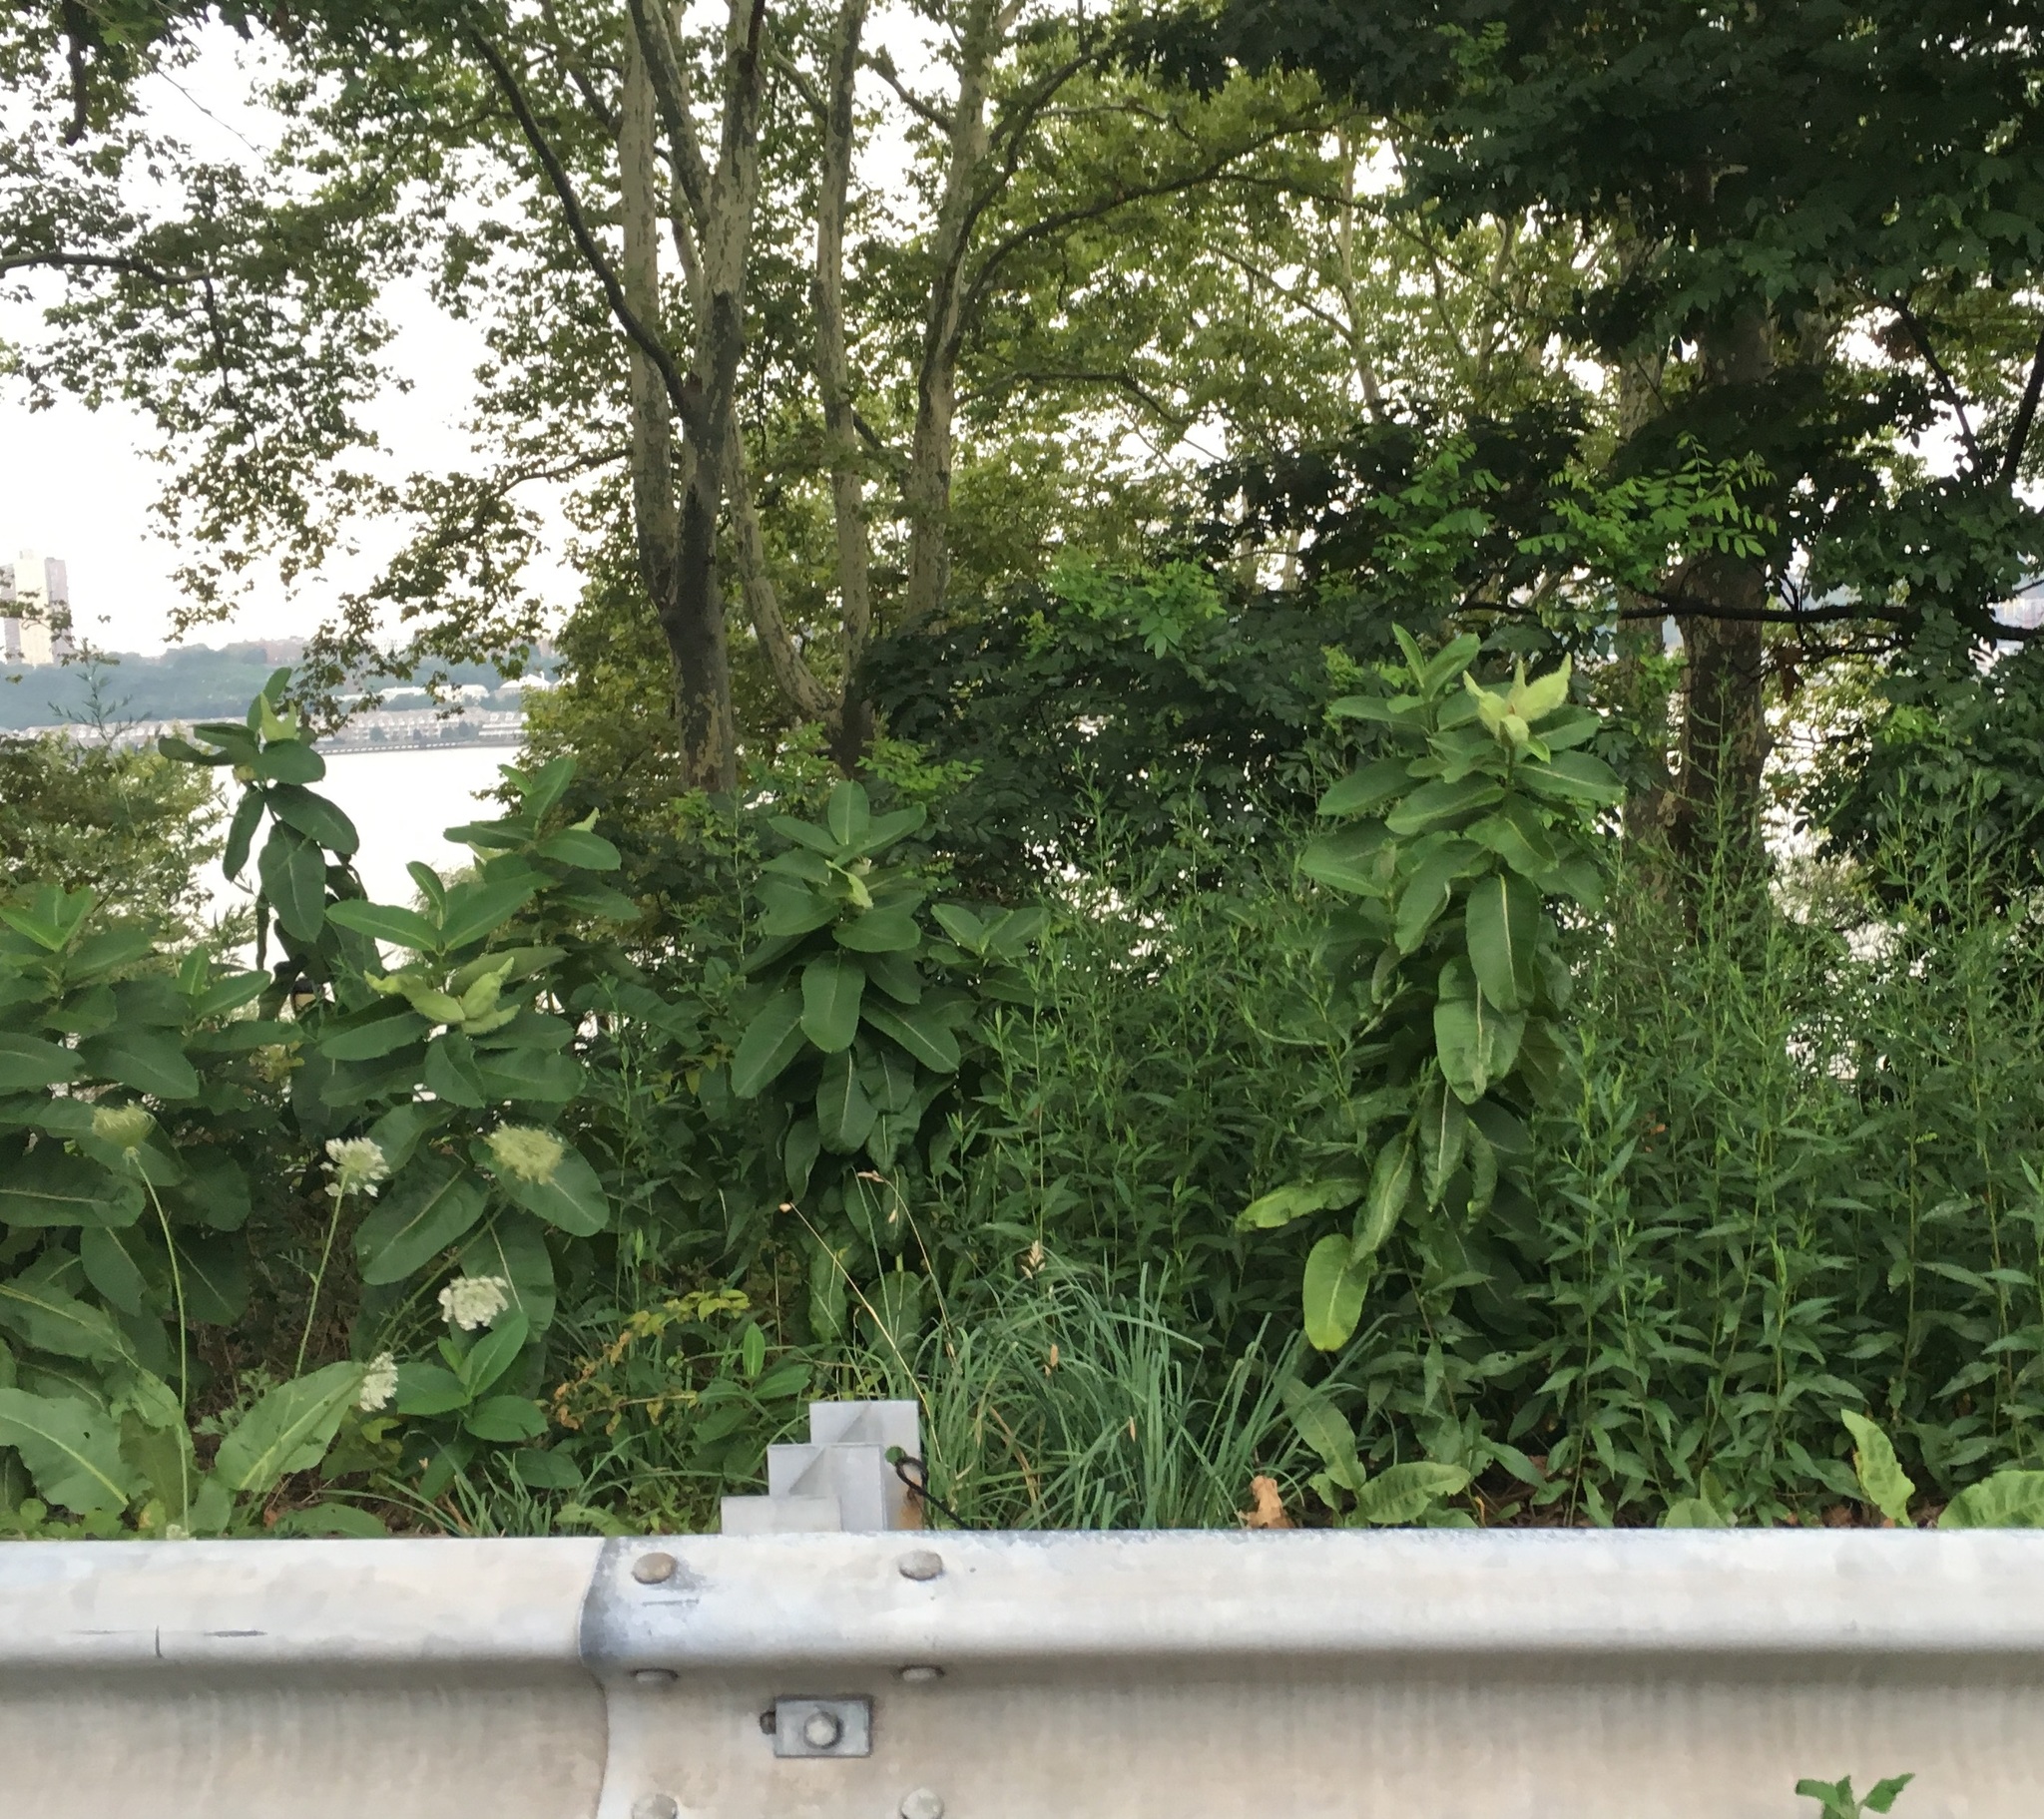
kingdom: Plantae
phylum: Tracheophyta
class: Magnoliopsida
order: Gentianales
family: Apocynaceae
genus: Asclepias
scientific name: Asclepias syriaca
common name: Common milkweed
